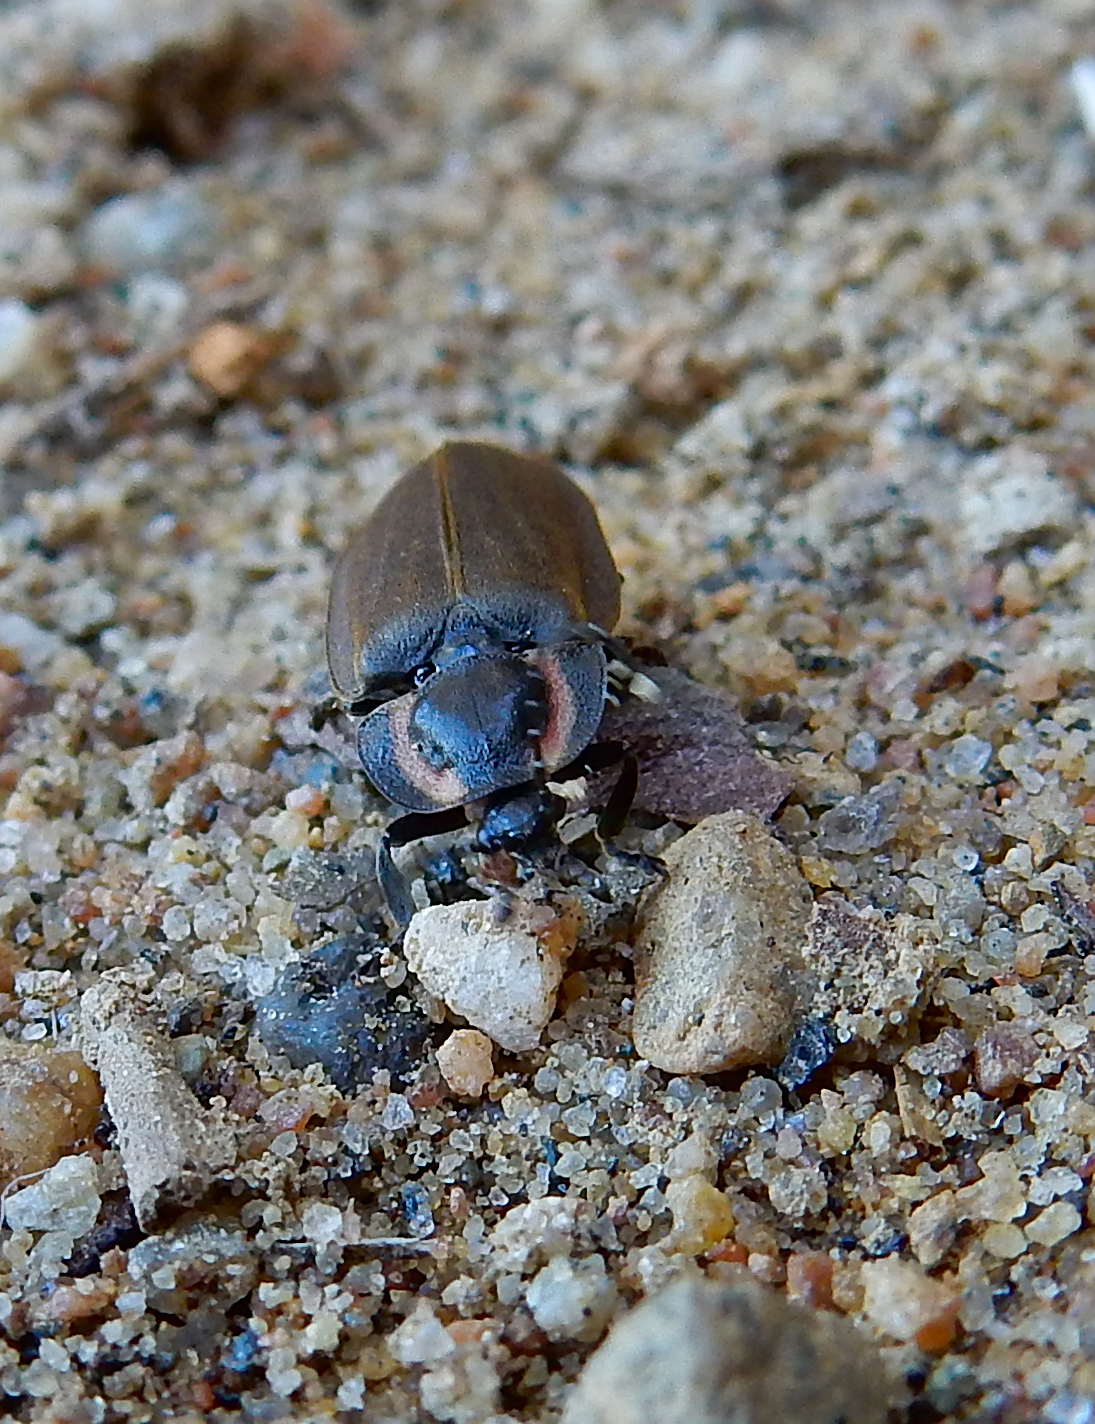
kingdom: Animalia
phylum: Arthropoda
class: Insecta
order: Coleoptera
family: Lampyridae
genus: Photinus
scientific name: Photinus corrusca
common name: Winter firefly
